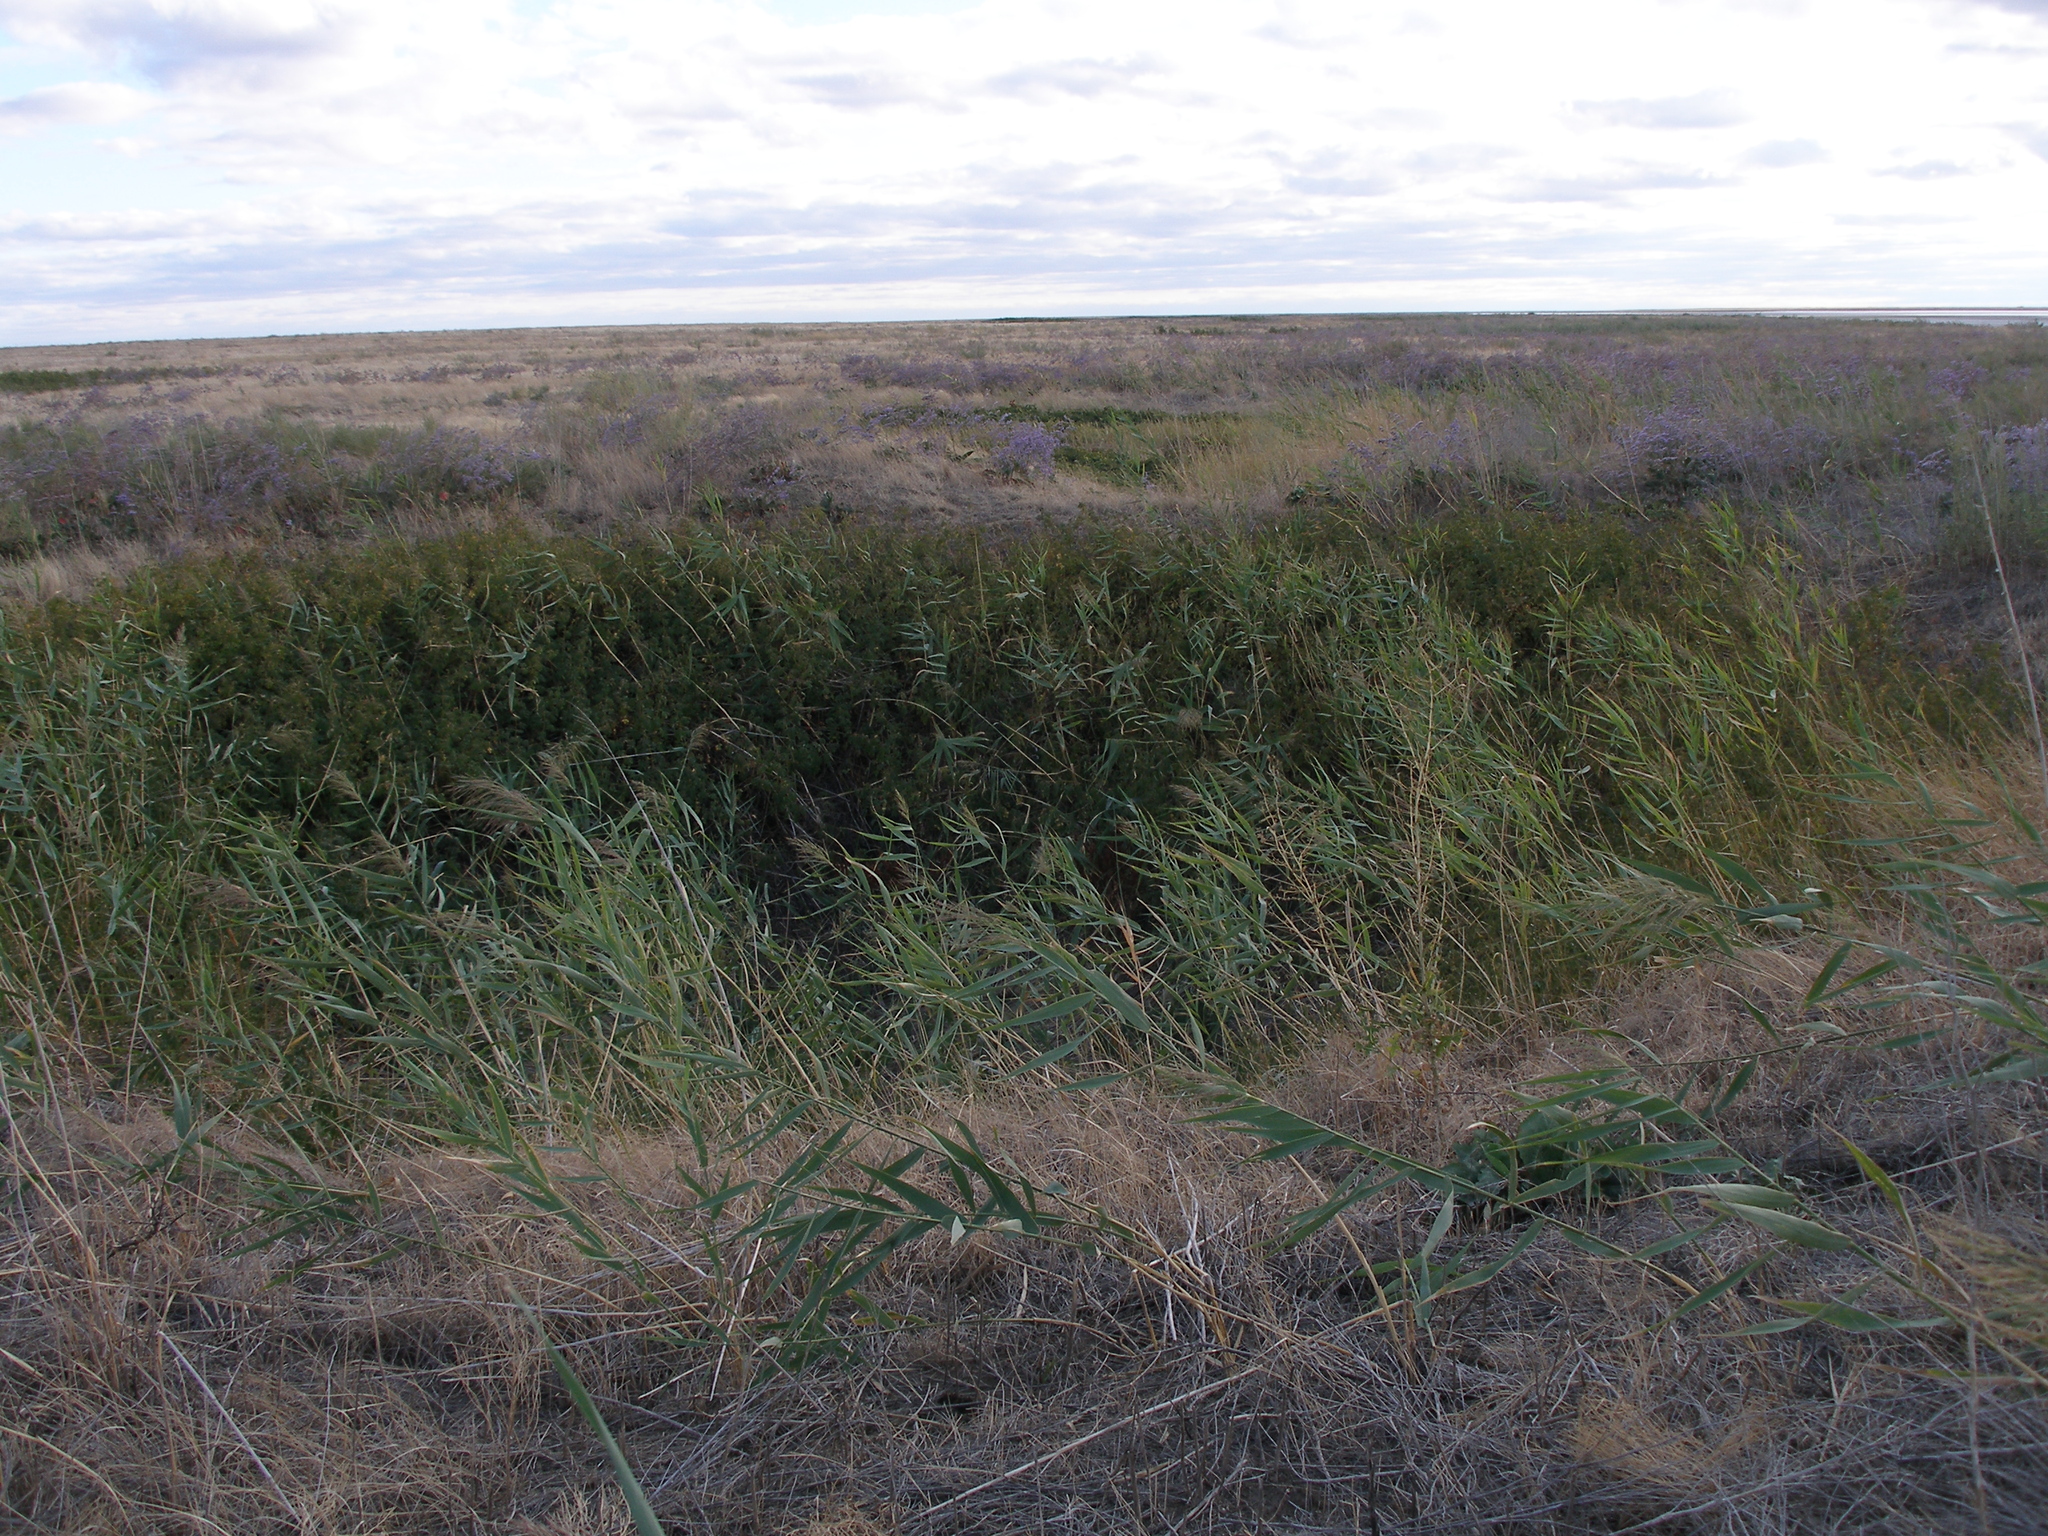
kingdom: Plantae
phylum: Tracheophyta
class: Liliopsida
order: Poales
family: Poaceae
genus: Phragmites
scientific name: Phragmites australis
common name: Common reed
